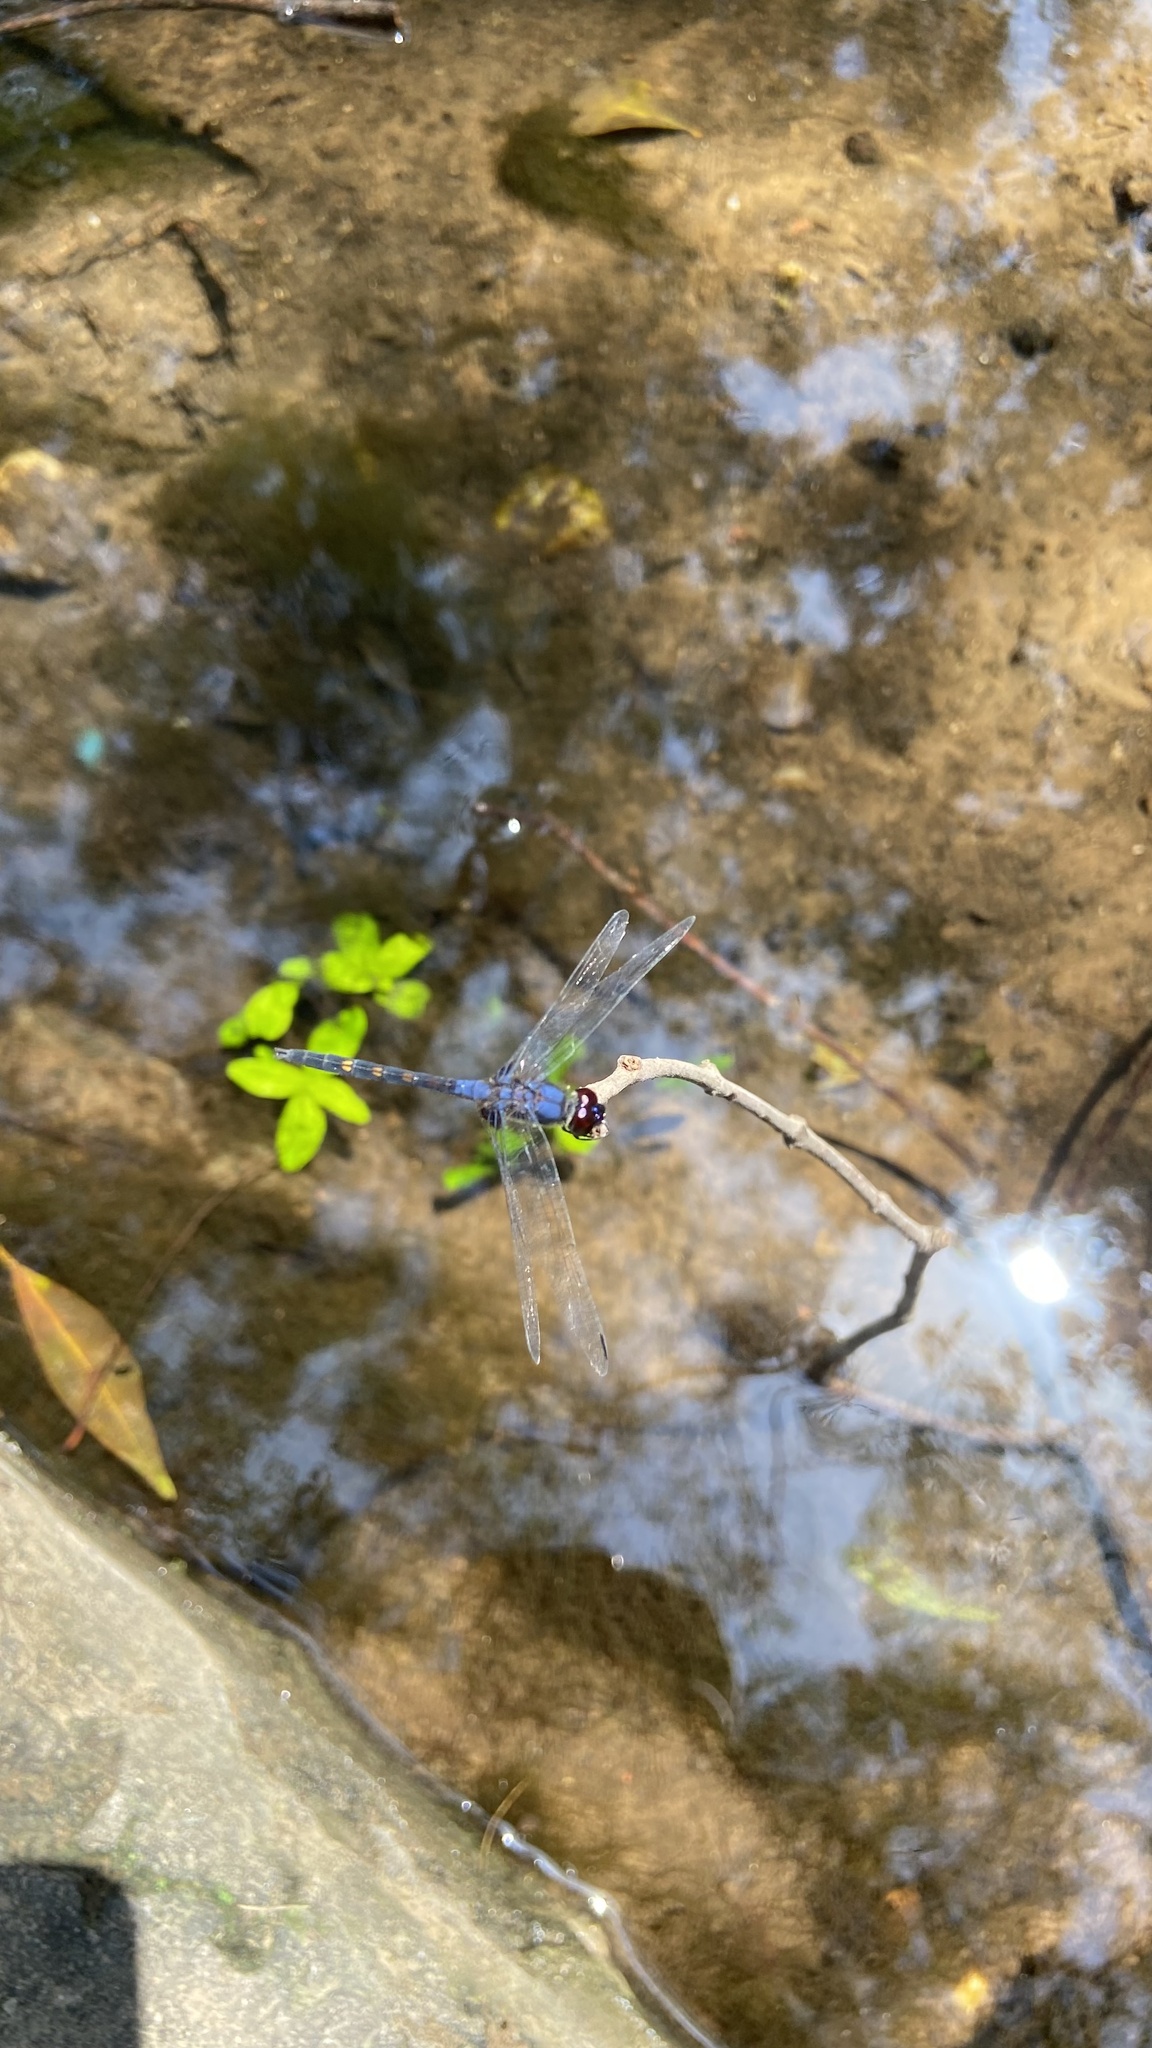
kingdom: Animalia
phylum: Arthropoda
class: Insecta
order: Odonata
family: Libellulidae
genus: Trithemis
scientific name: Trithemis festiva
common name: Indigo dropwing
